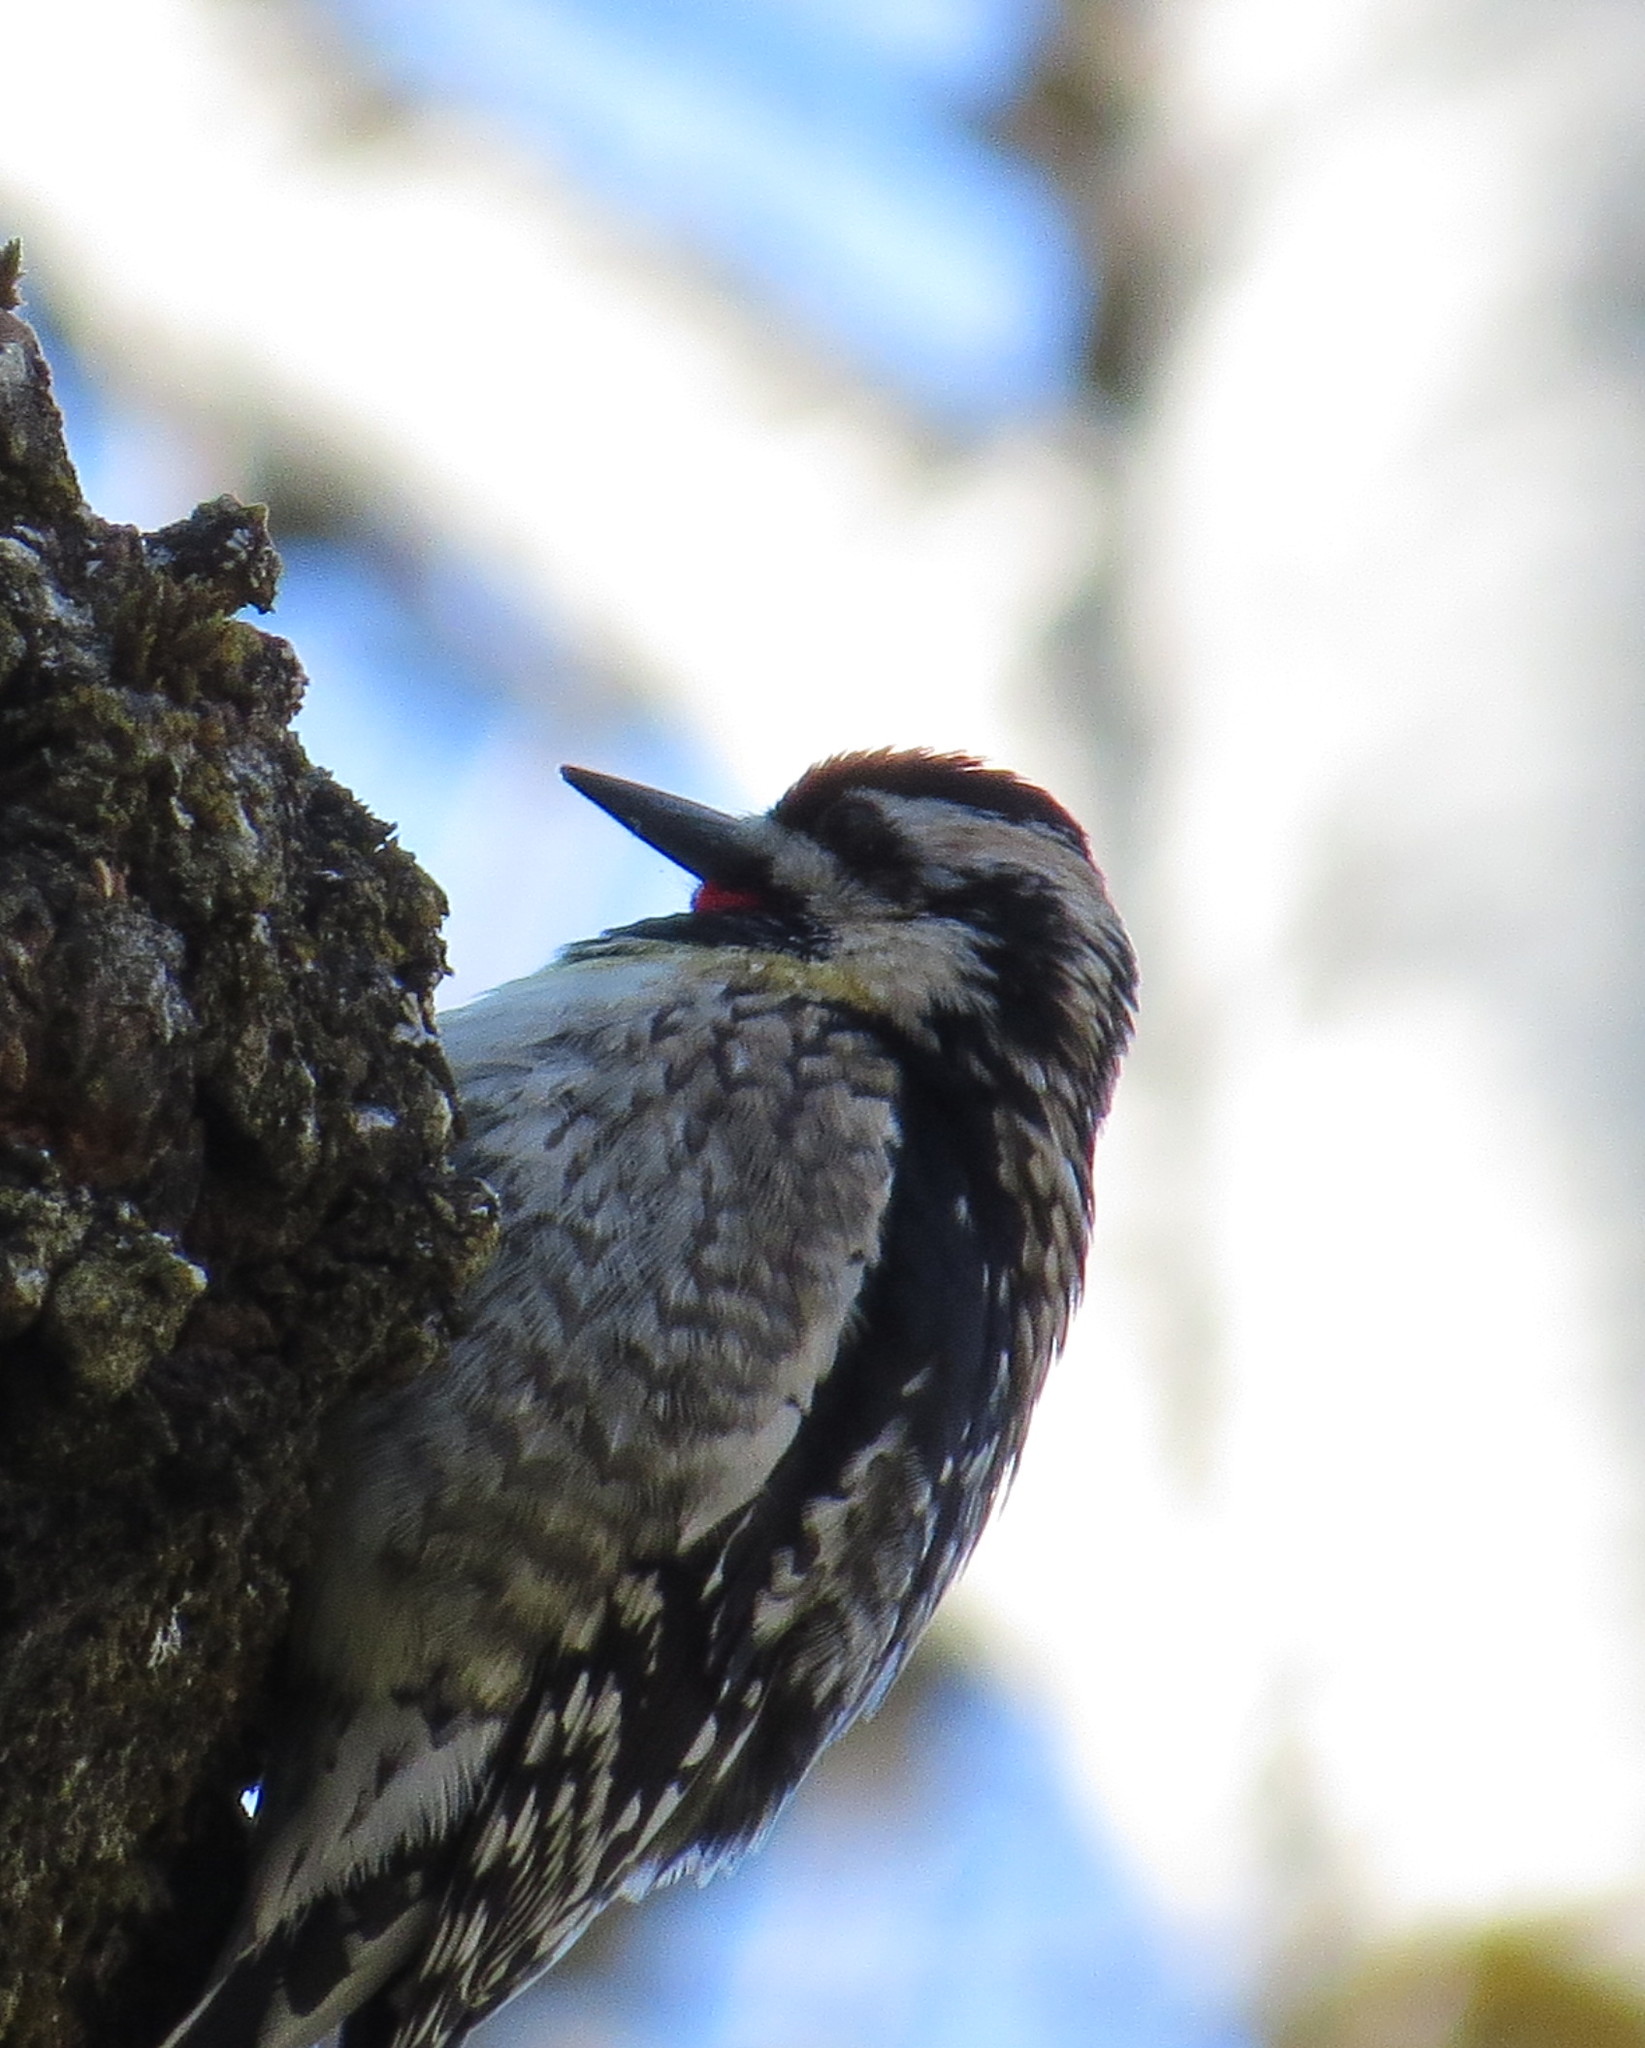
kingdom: Animalia
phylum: Chordata
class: Aves
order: Piciformes
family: Picidae
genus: Sphyrapicus
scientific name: Sphyrapicus varius
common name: Yellow-bellied sapsucker
